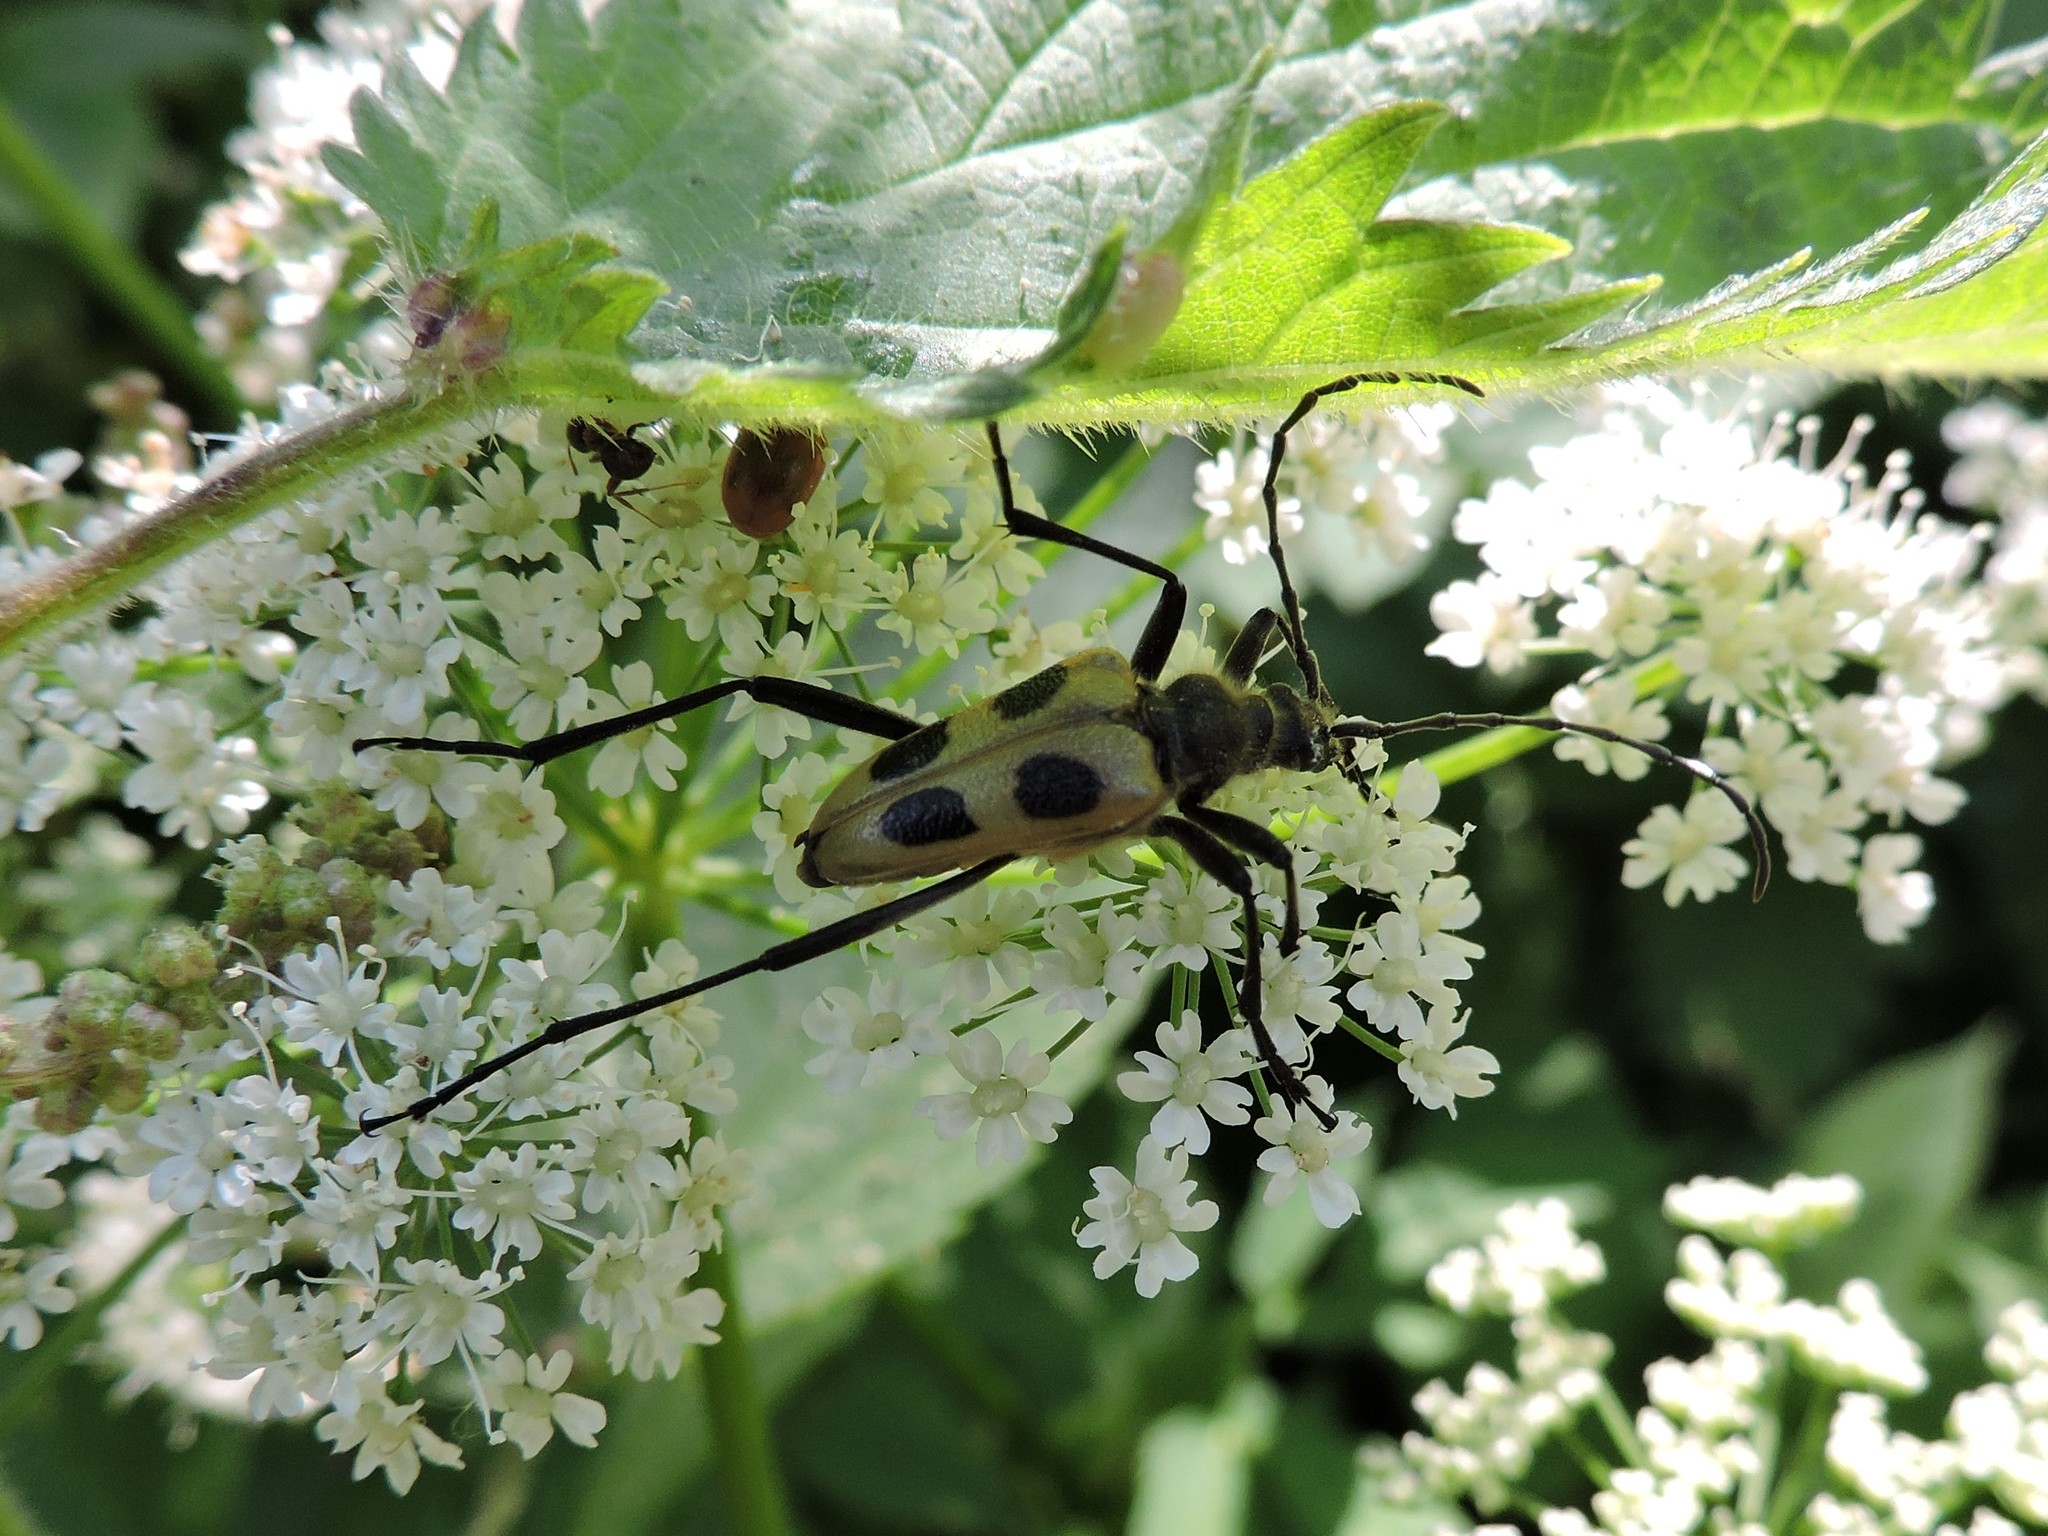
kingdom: Animalia
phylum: Arthropoda
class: Insecta
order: Coleoptera
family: Cerambycidae
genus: Pachyta
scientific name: Pachyta quadrimaculata
